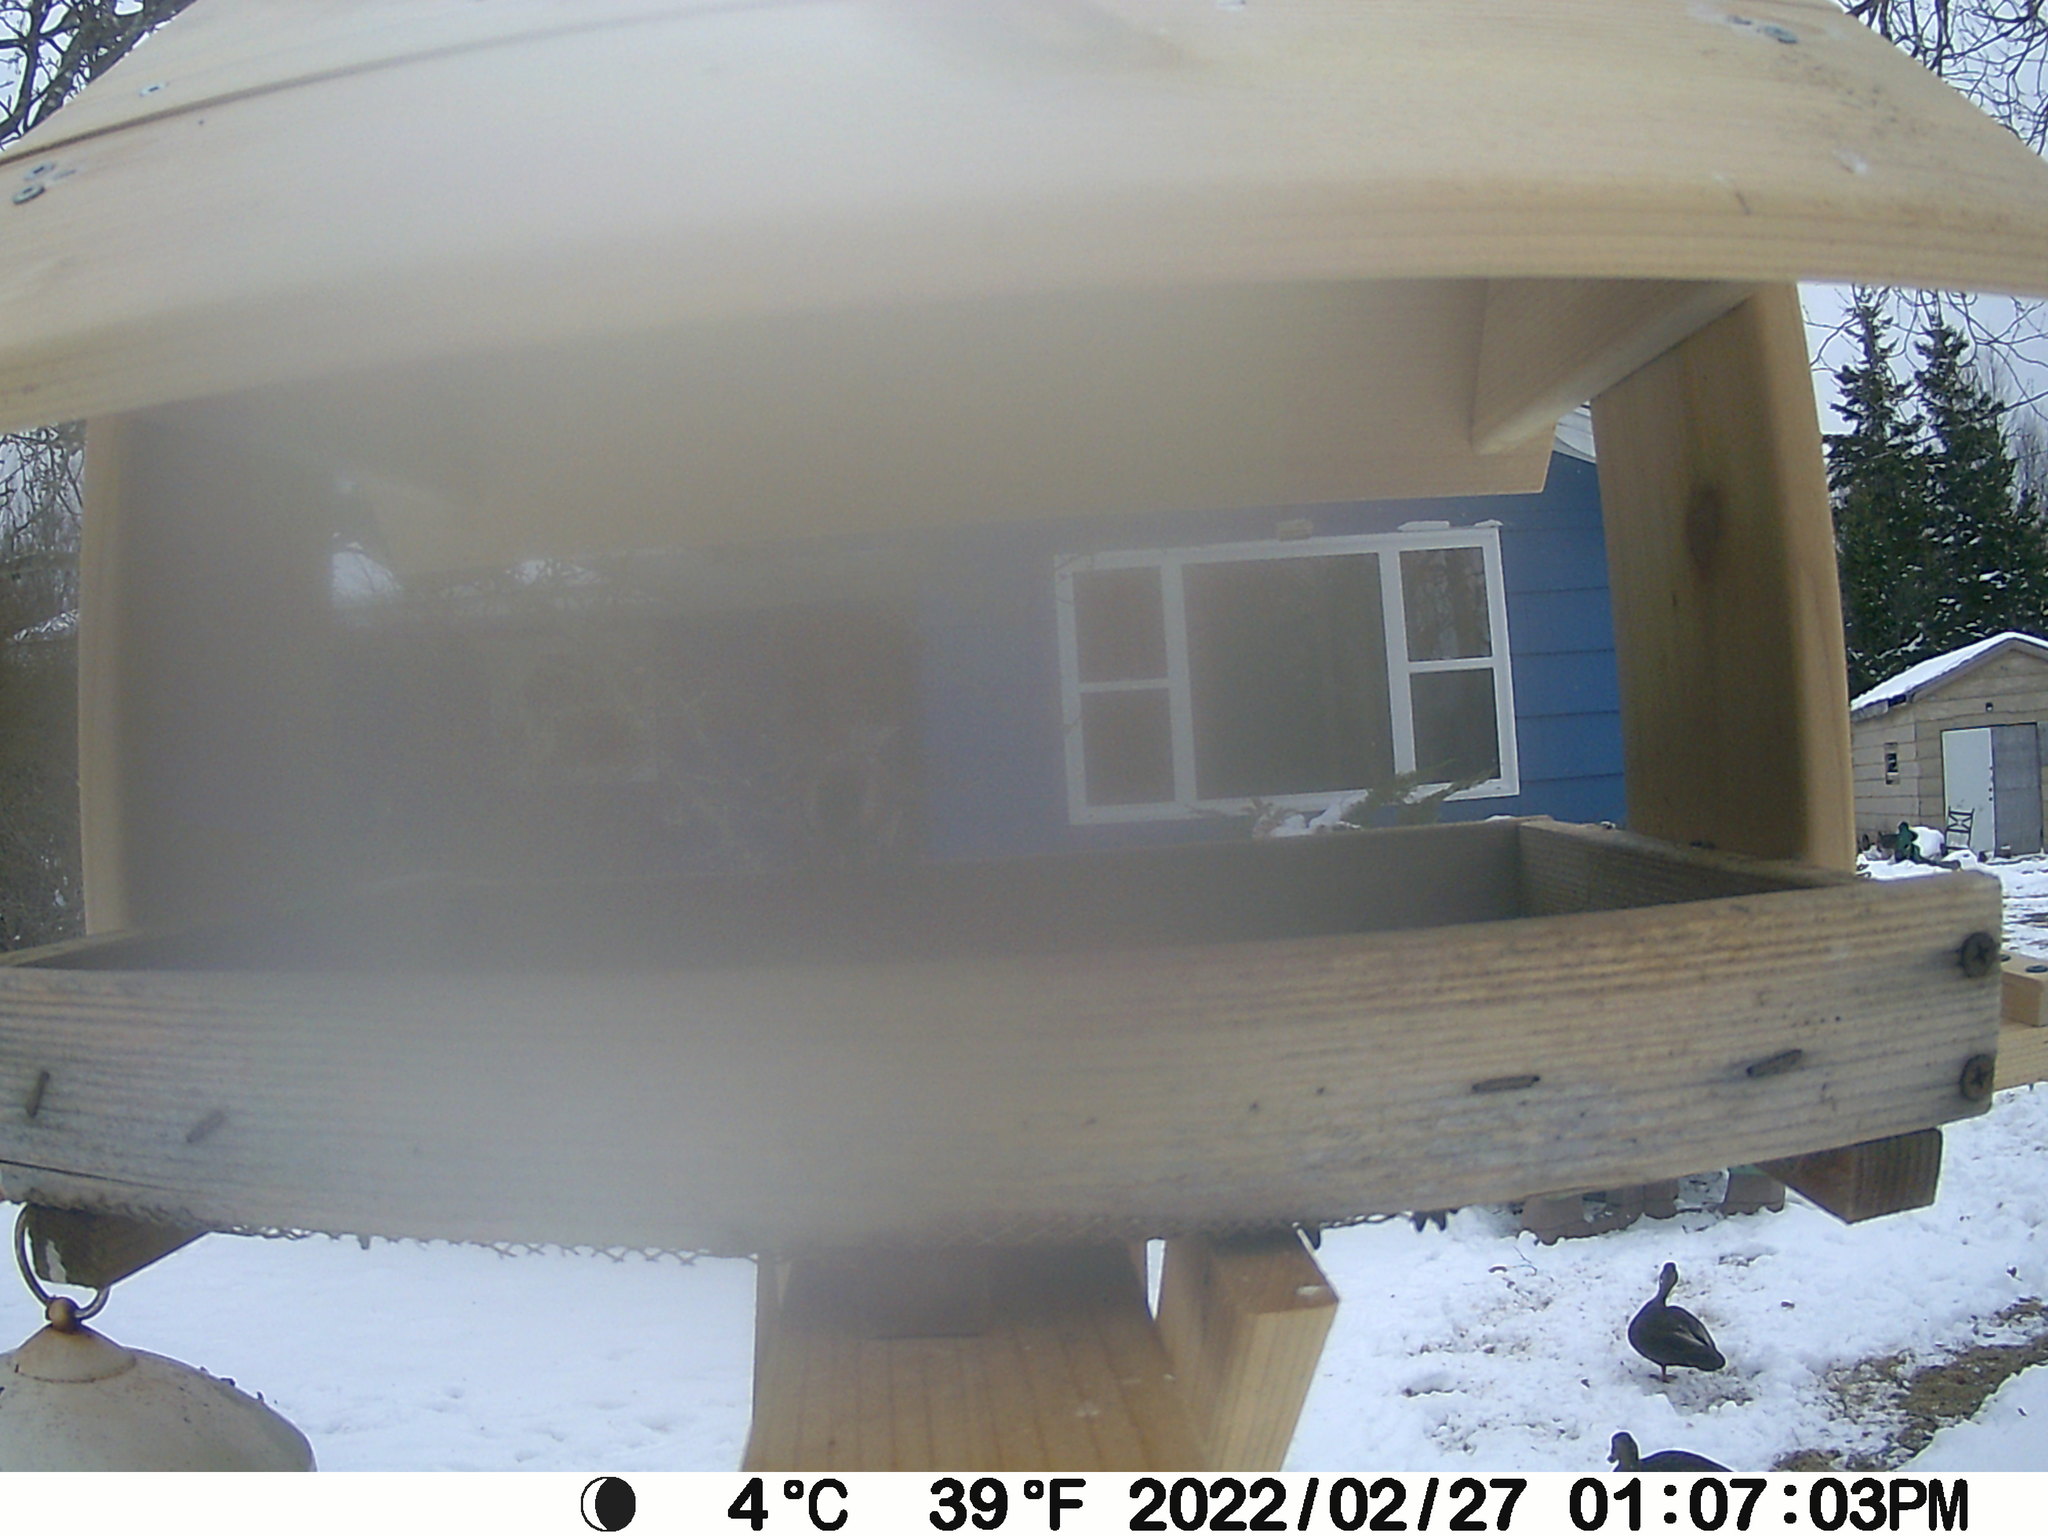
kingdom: Animalia
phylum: Chordata
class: Aves
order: Anseriformes
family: Anatidae
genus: Anas
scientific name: Anas rubripes
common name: American black duck
